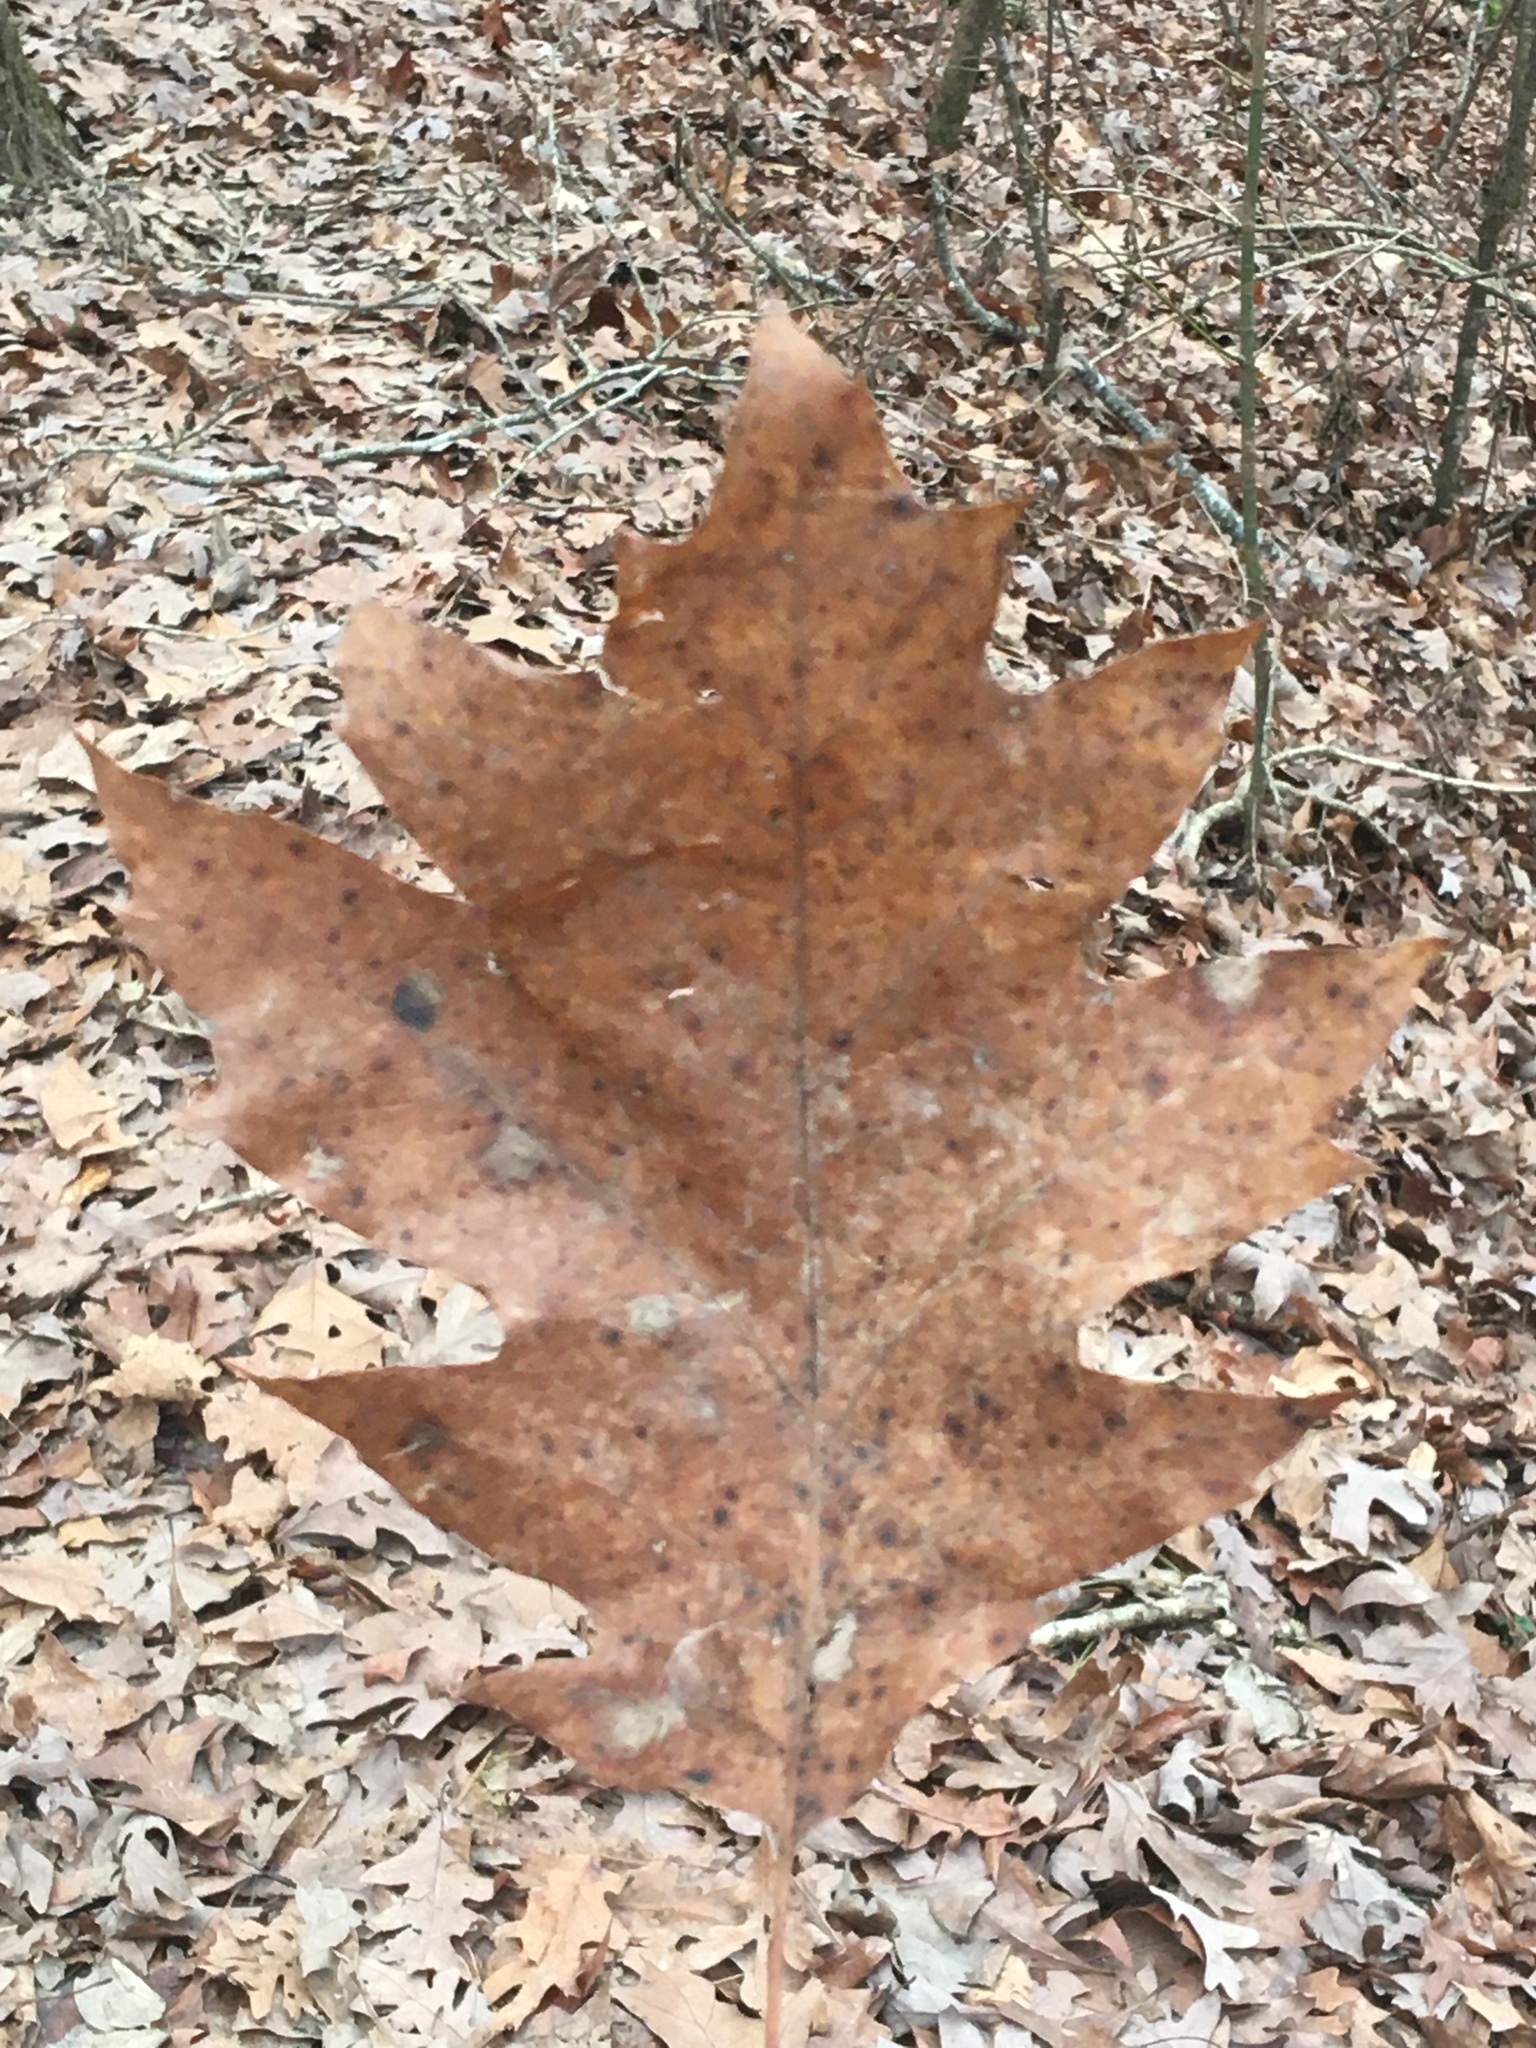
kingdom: Plantae
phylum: Tracheophyta
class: Magnoliopsida
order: Fagales
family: Fagaceae
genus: Quercus
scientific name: Quercus rubra
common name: Red oak
